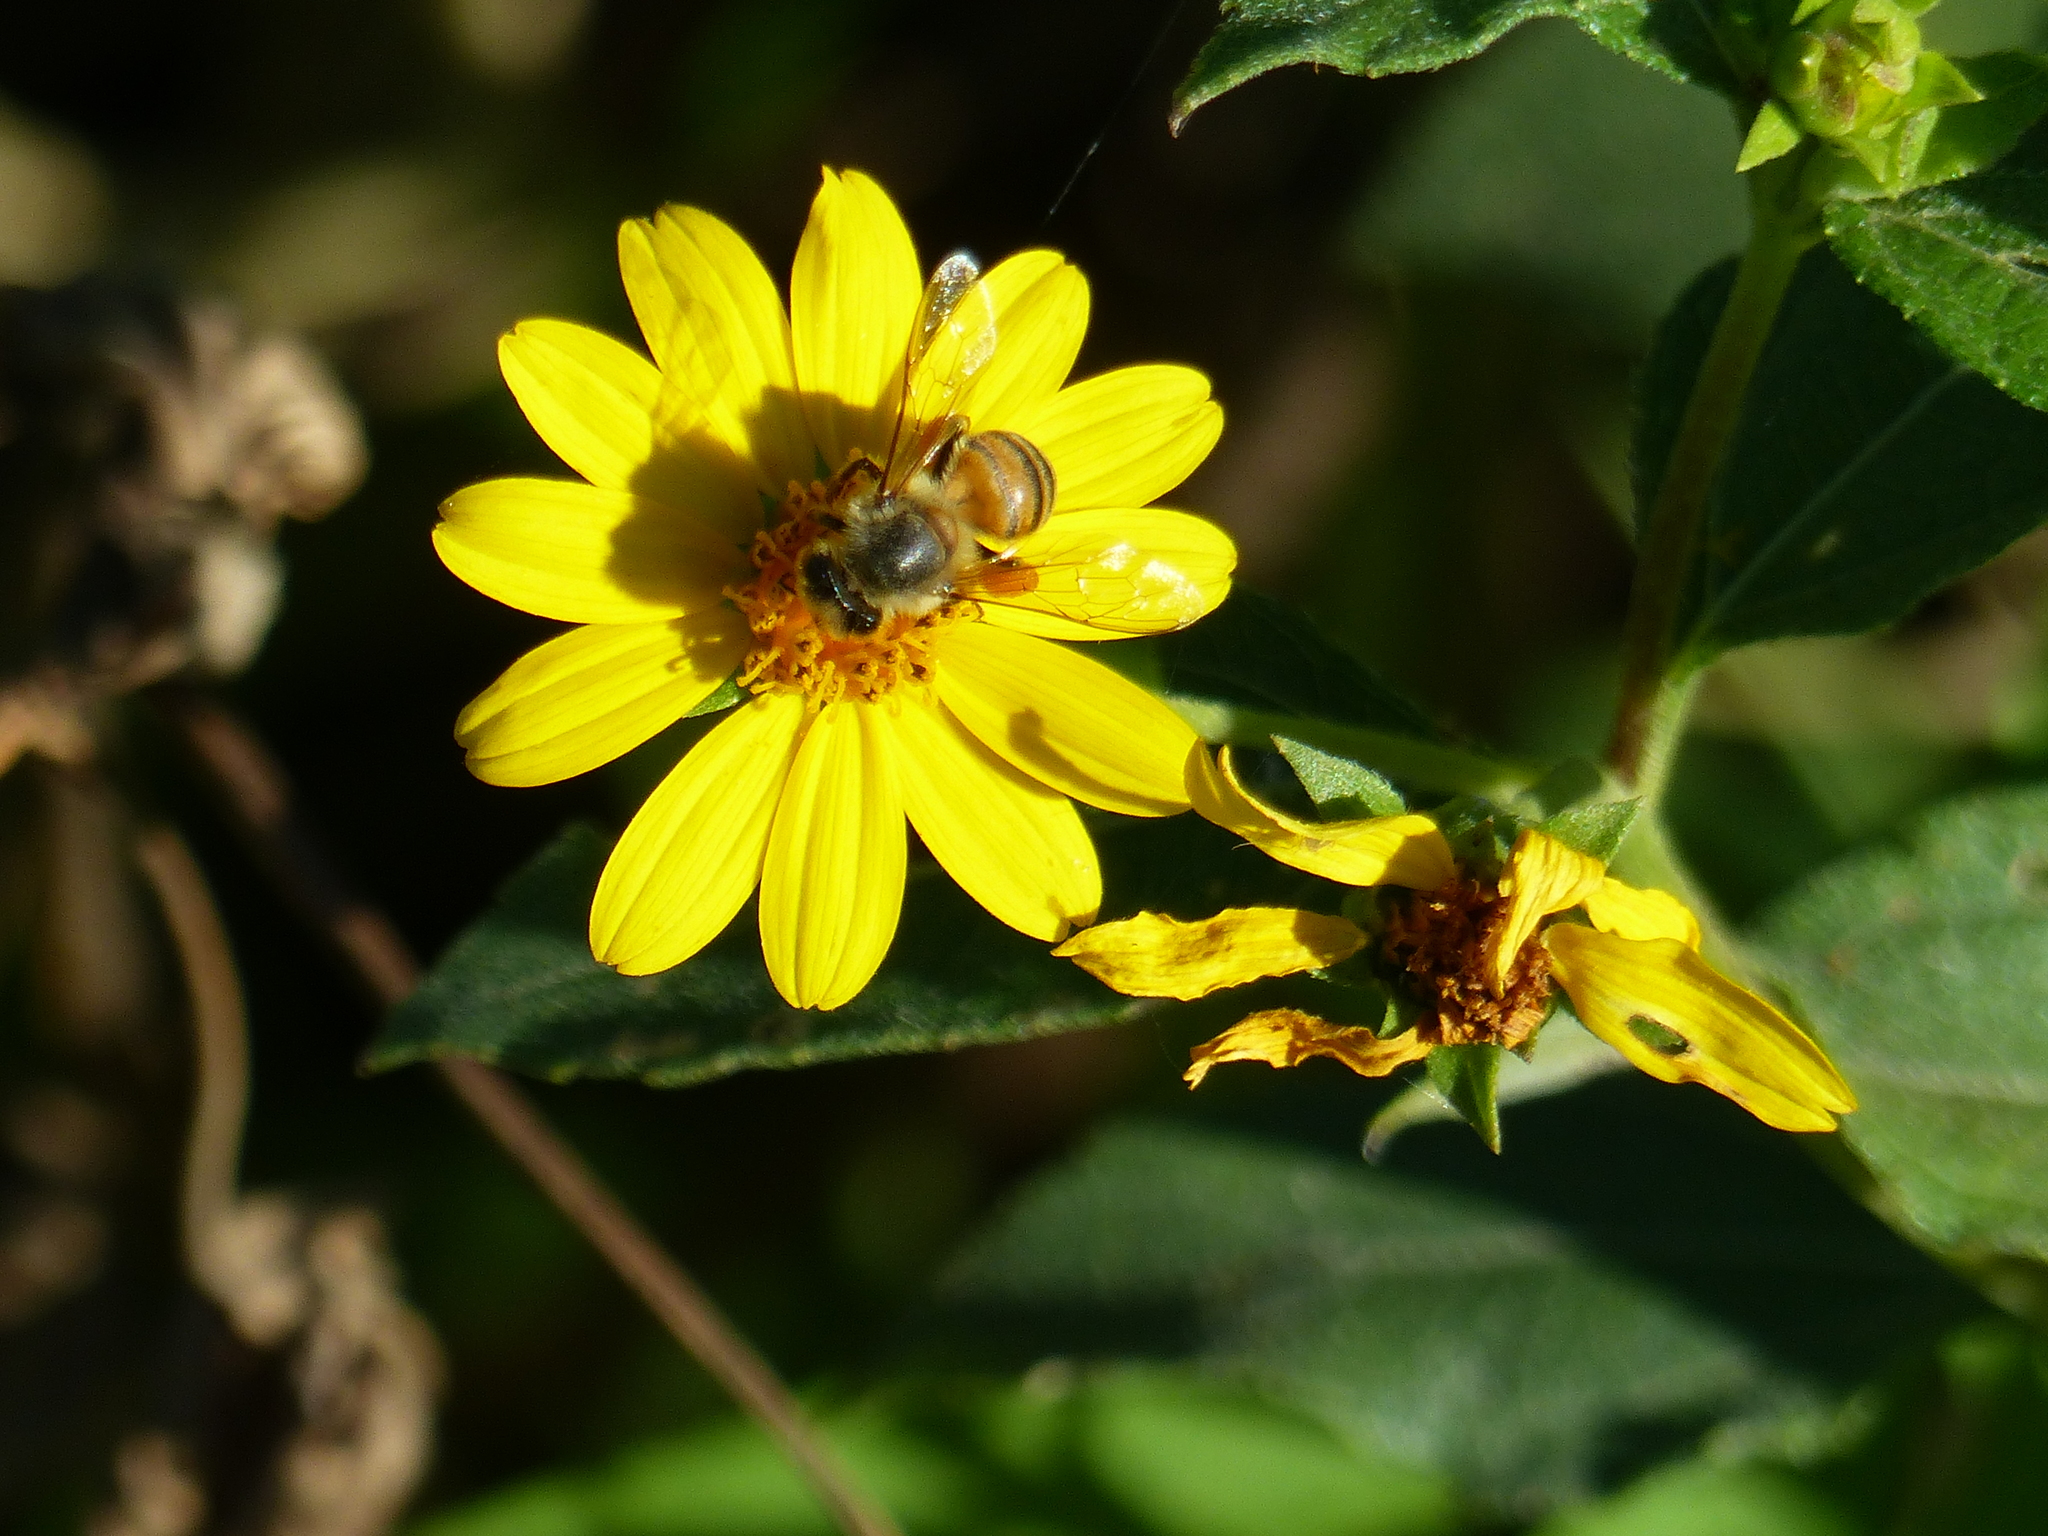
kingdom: Animalia
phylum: Arthropoda
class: Insecta
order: Hymenoptera
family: Apidae
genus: Apis
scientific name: Apis mellifera
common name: Honey bee
